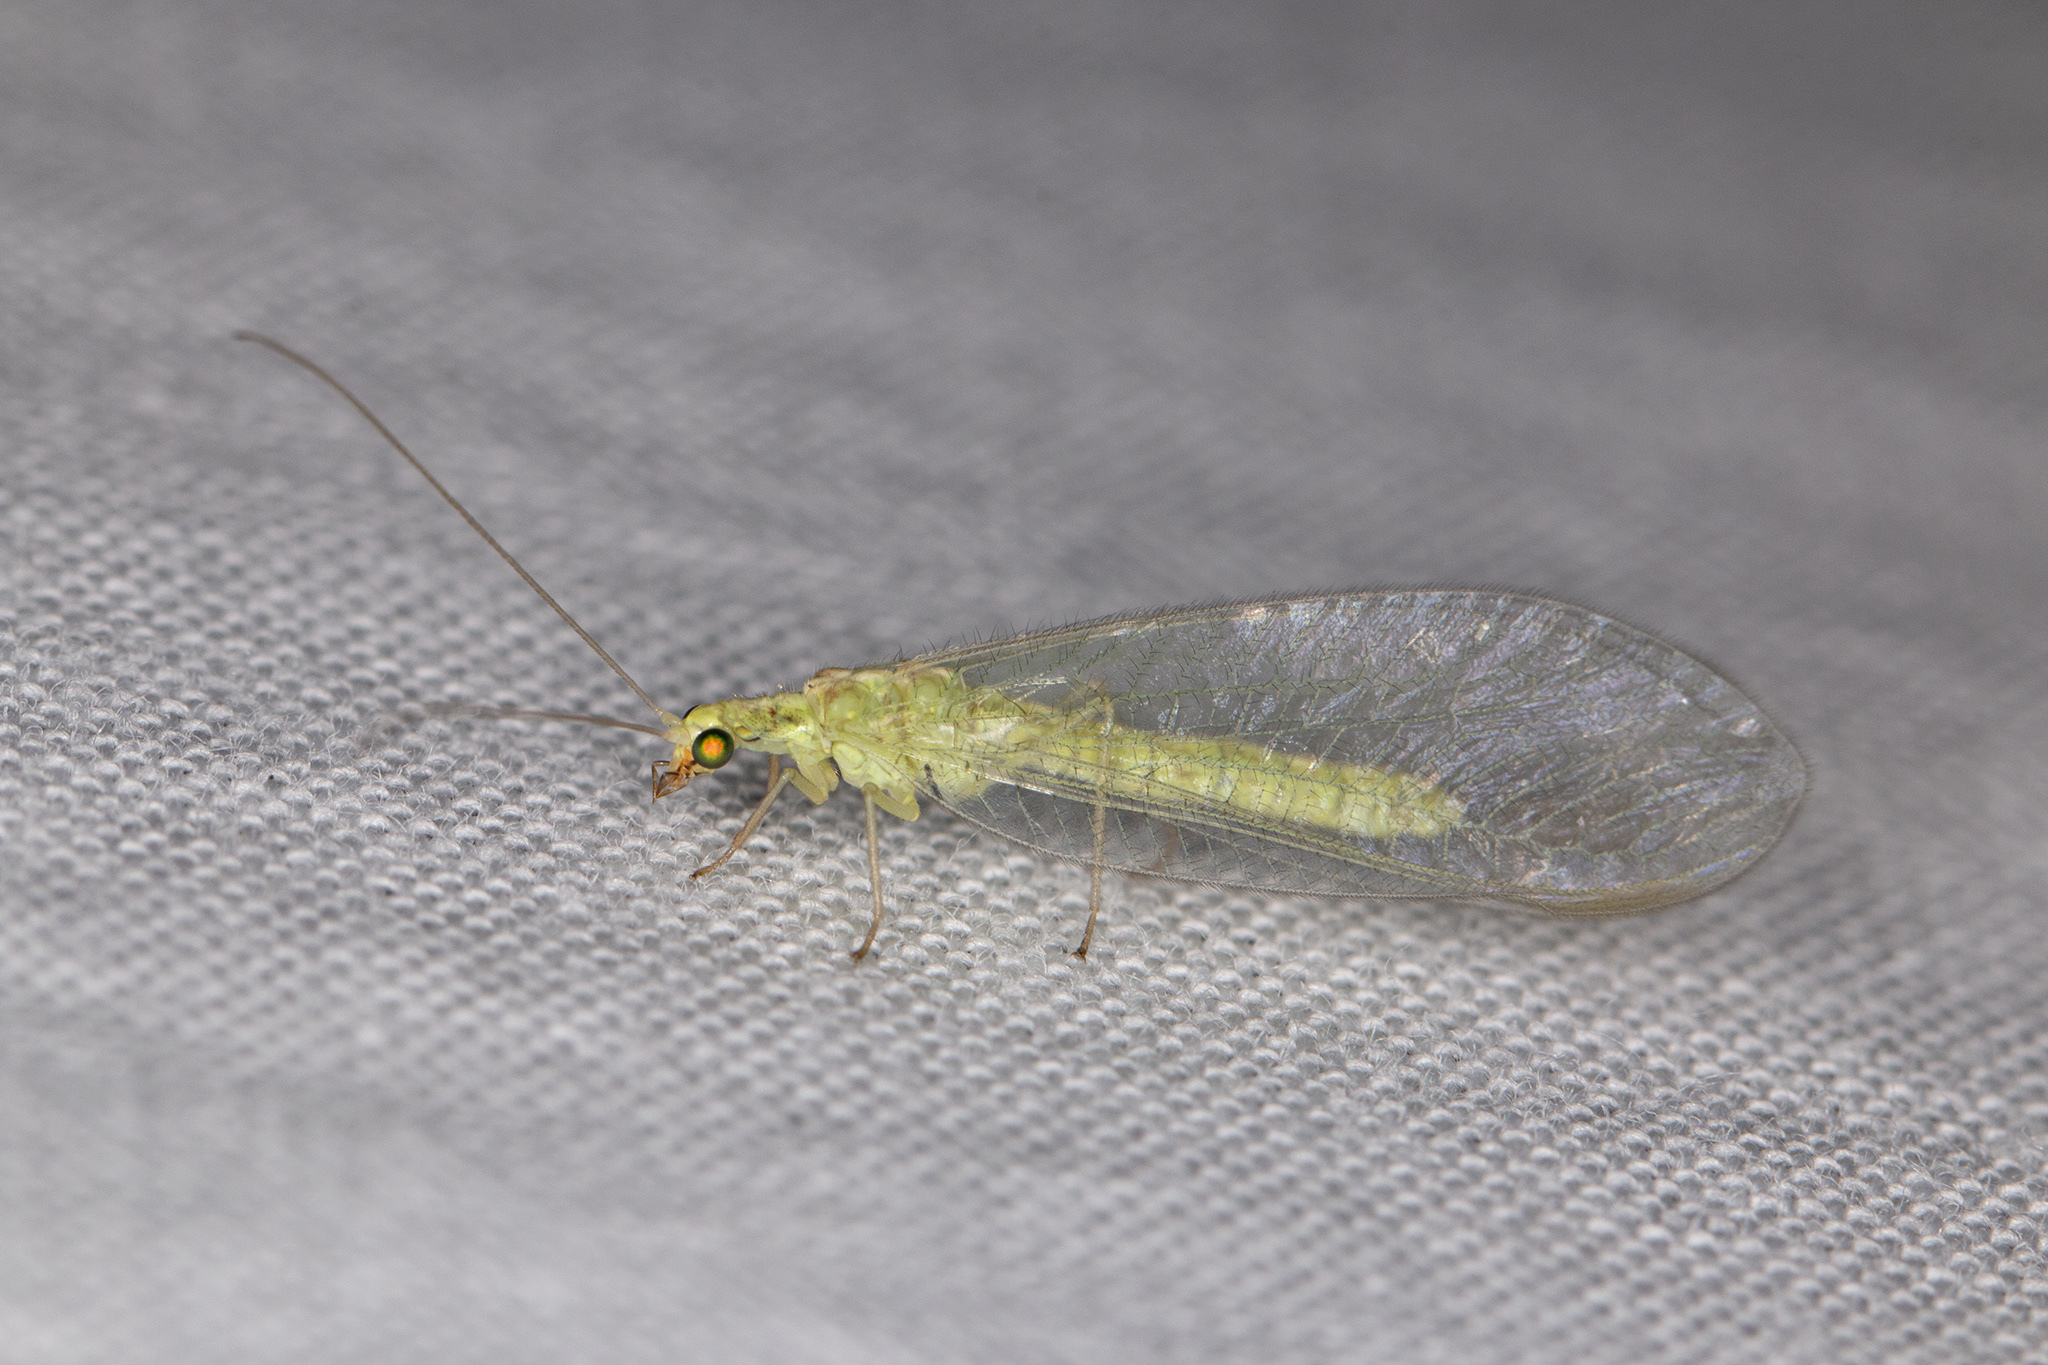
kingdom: Animalia
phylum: Arthropoda
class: Insecta
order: Neuroptera
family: Chrysopidae
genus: Chrysoperla
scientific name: Chrysoperla
